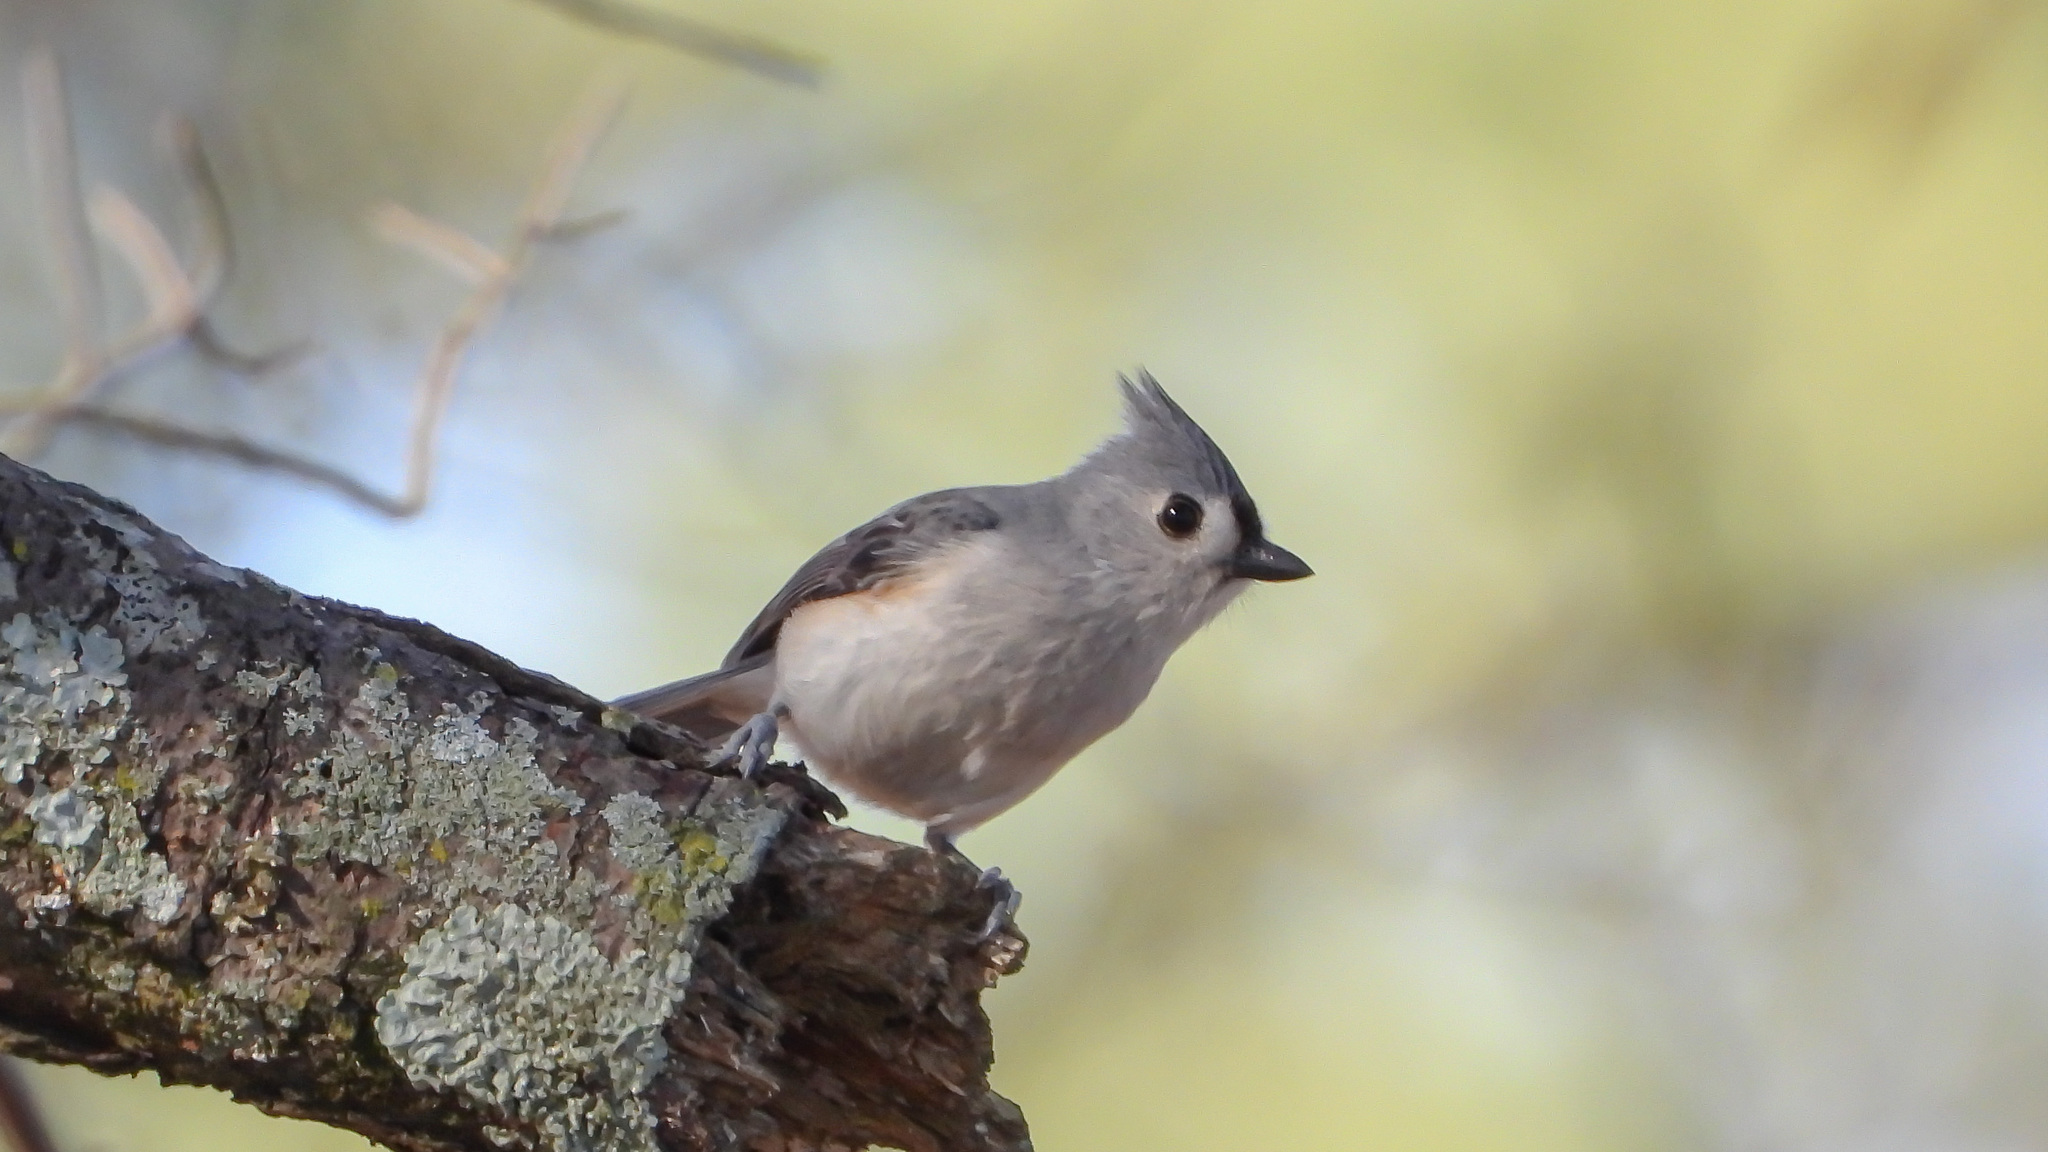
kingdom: Animalia
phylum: Chordata
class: Aves
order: Passeriformes
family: Paridae
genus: Baeolophus
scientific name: Baeolophus bicolor
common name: Tufted titmouse
